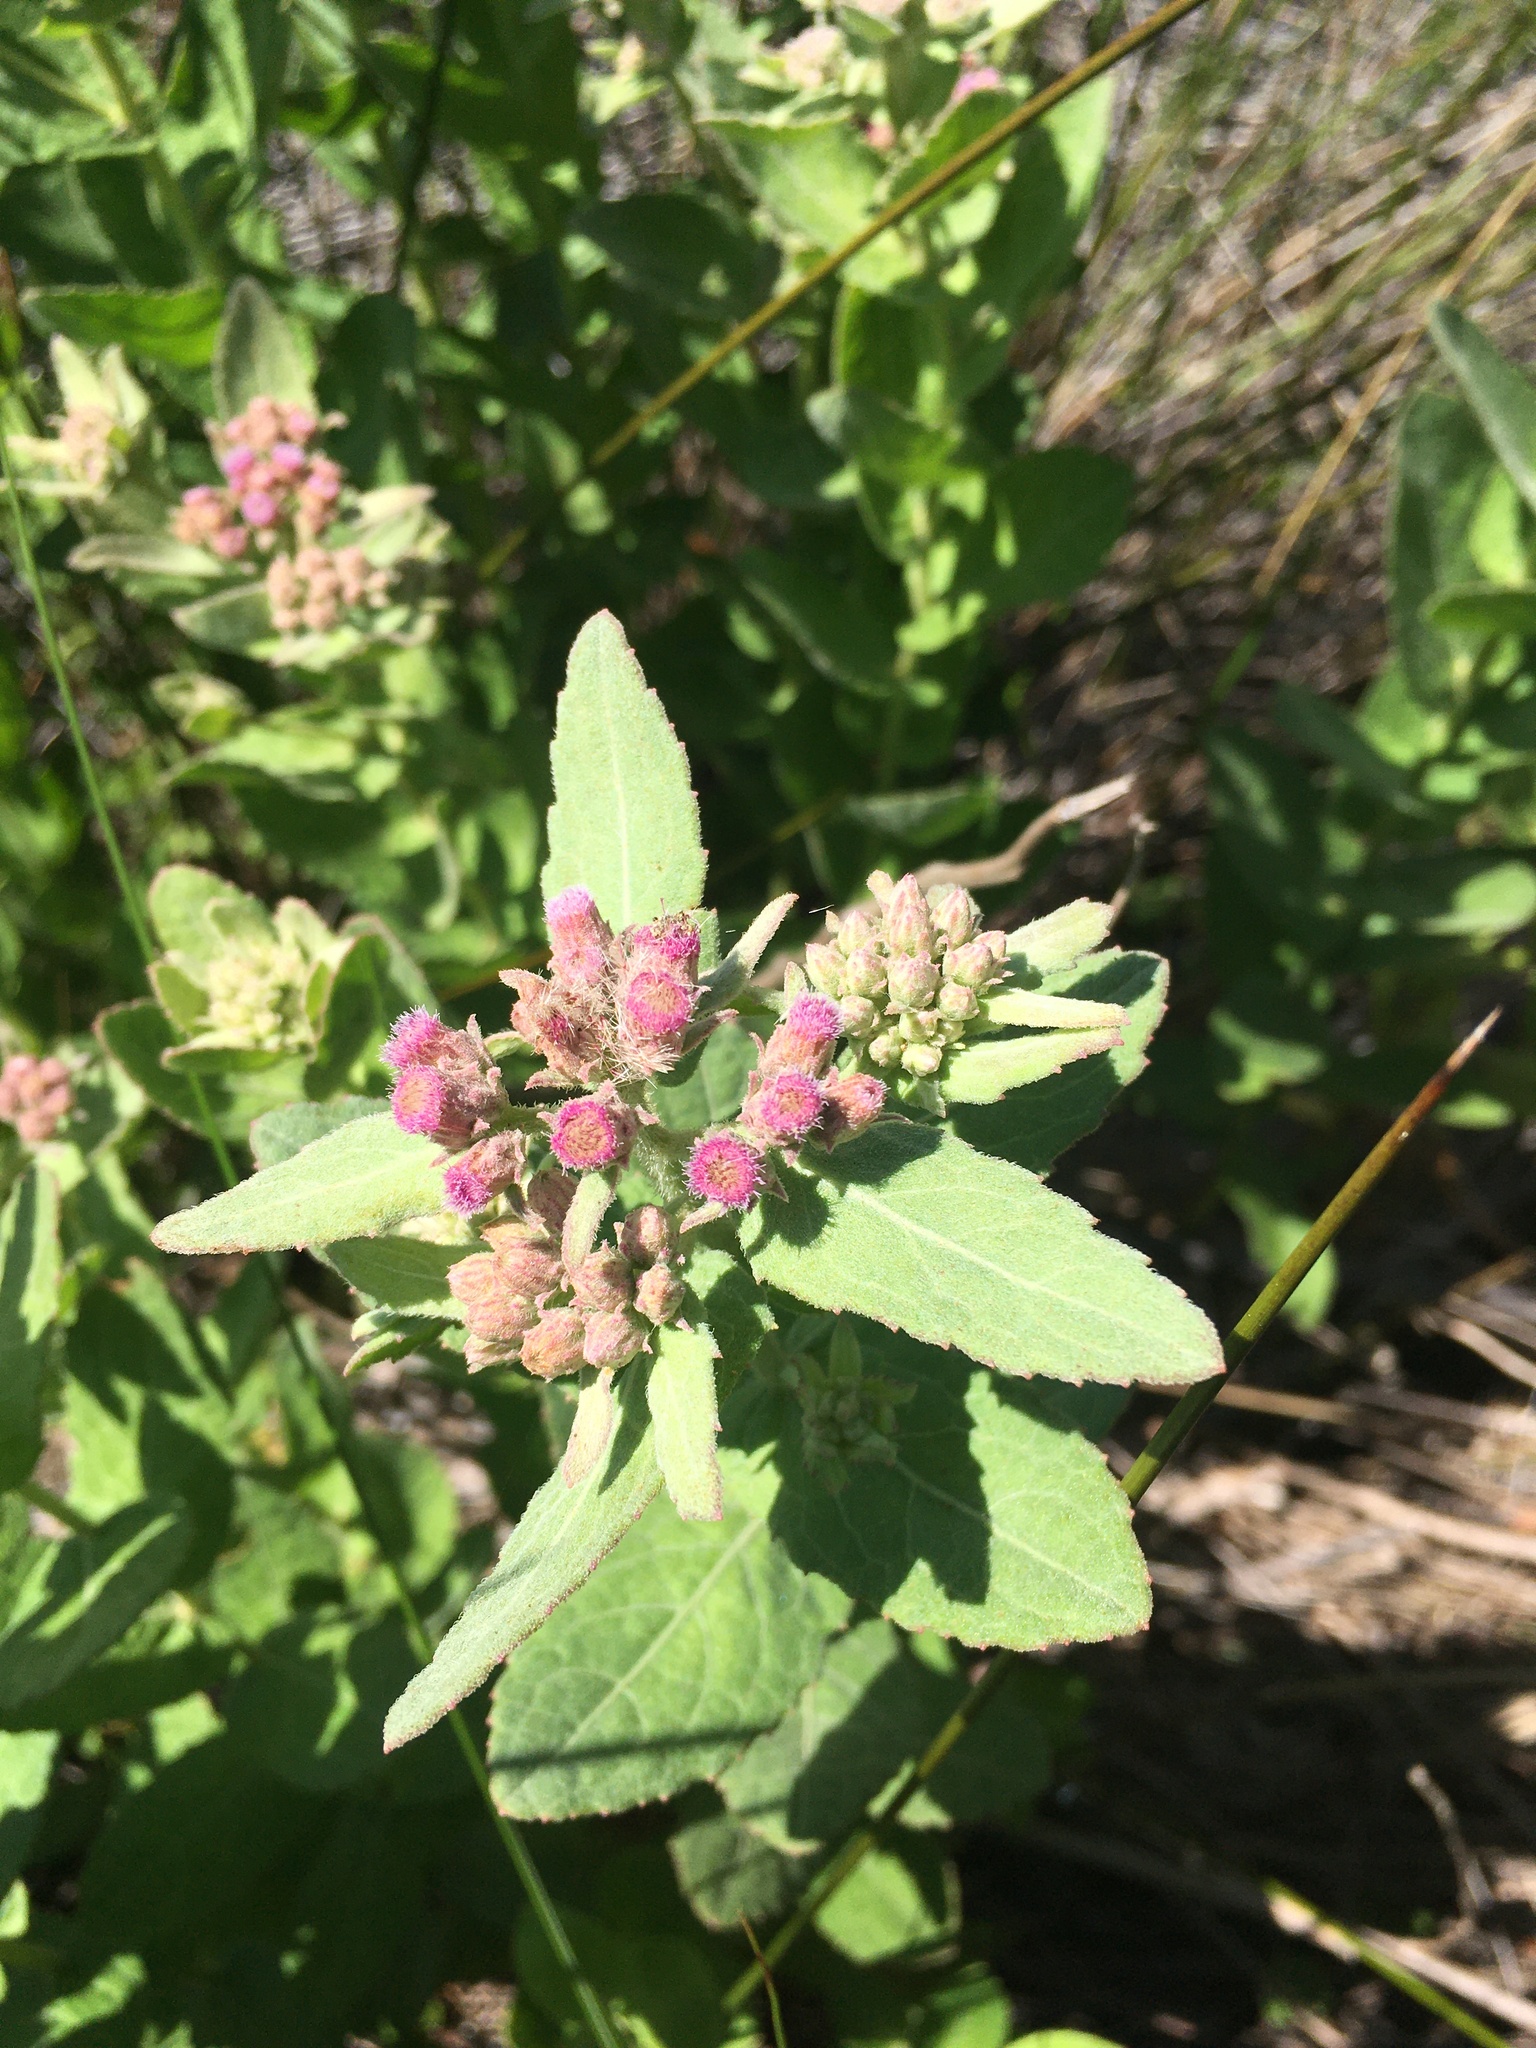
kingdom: Plantae
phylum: Tracheophyta
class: Magnoliopsida
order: Asterales
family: Asteraceae
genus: Pluchea
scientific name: Pluchea baccharis
